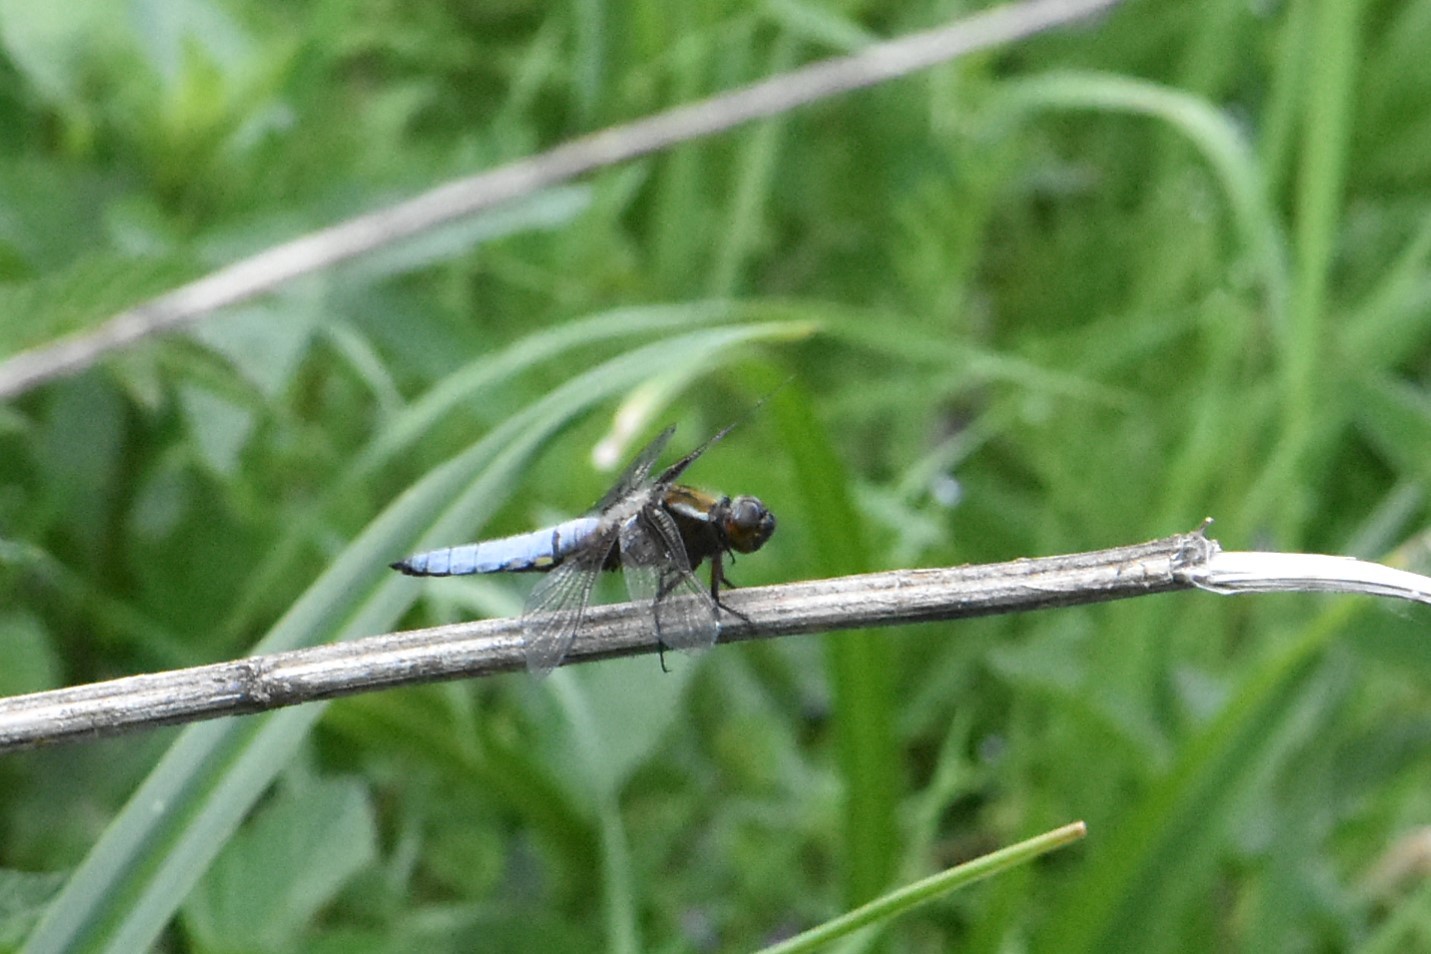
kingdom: Animalia
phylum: Arthropoda
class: Insecta
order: Odonata
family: Libellulidae
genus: Libellula
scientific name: Libellula depressa
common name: Broad-bodied chaser
